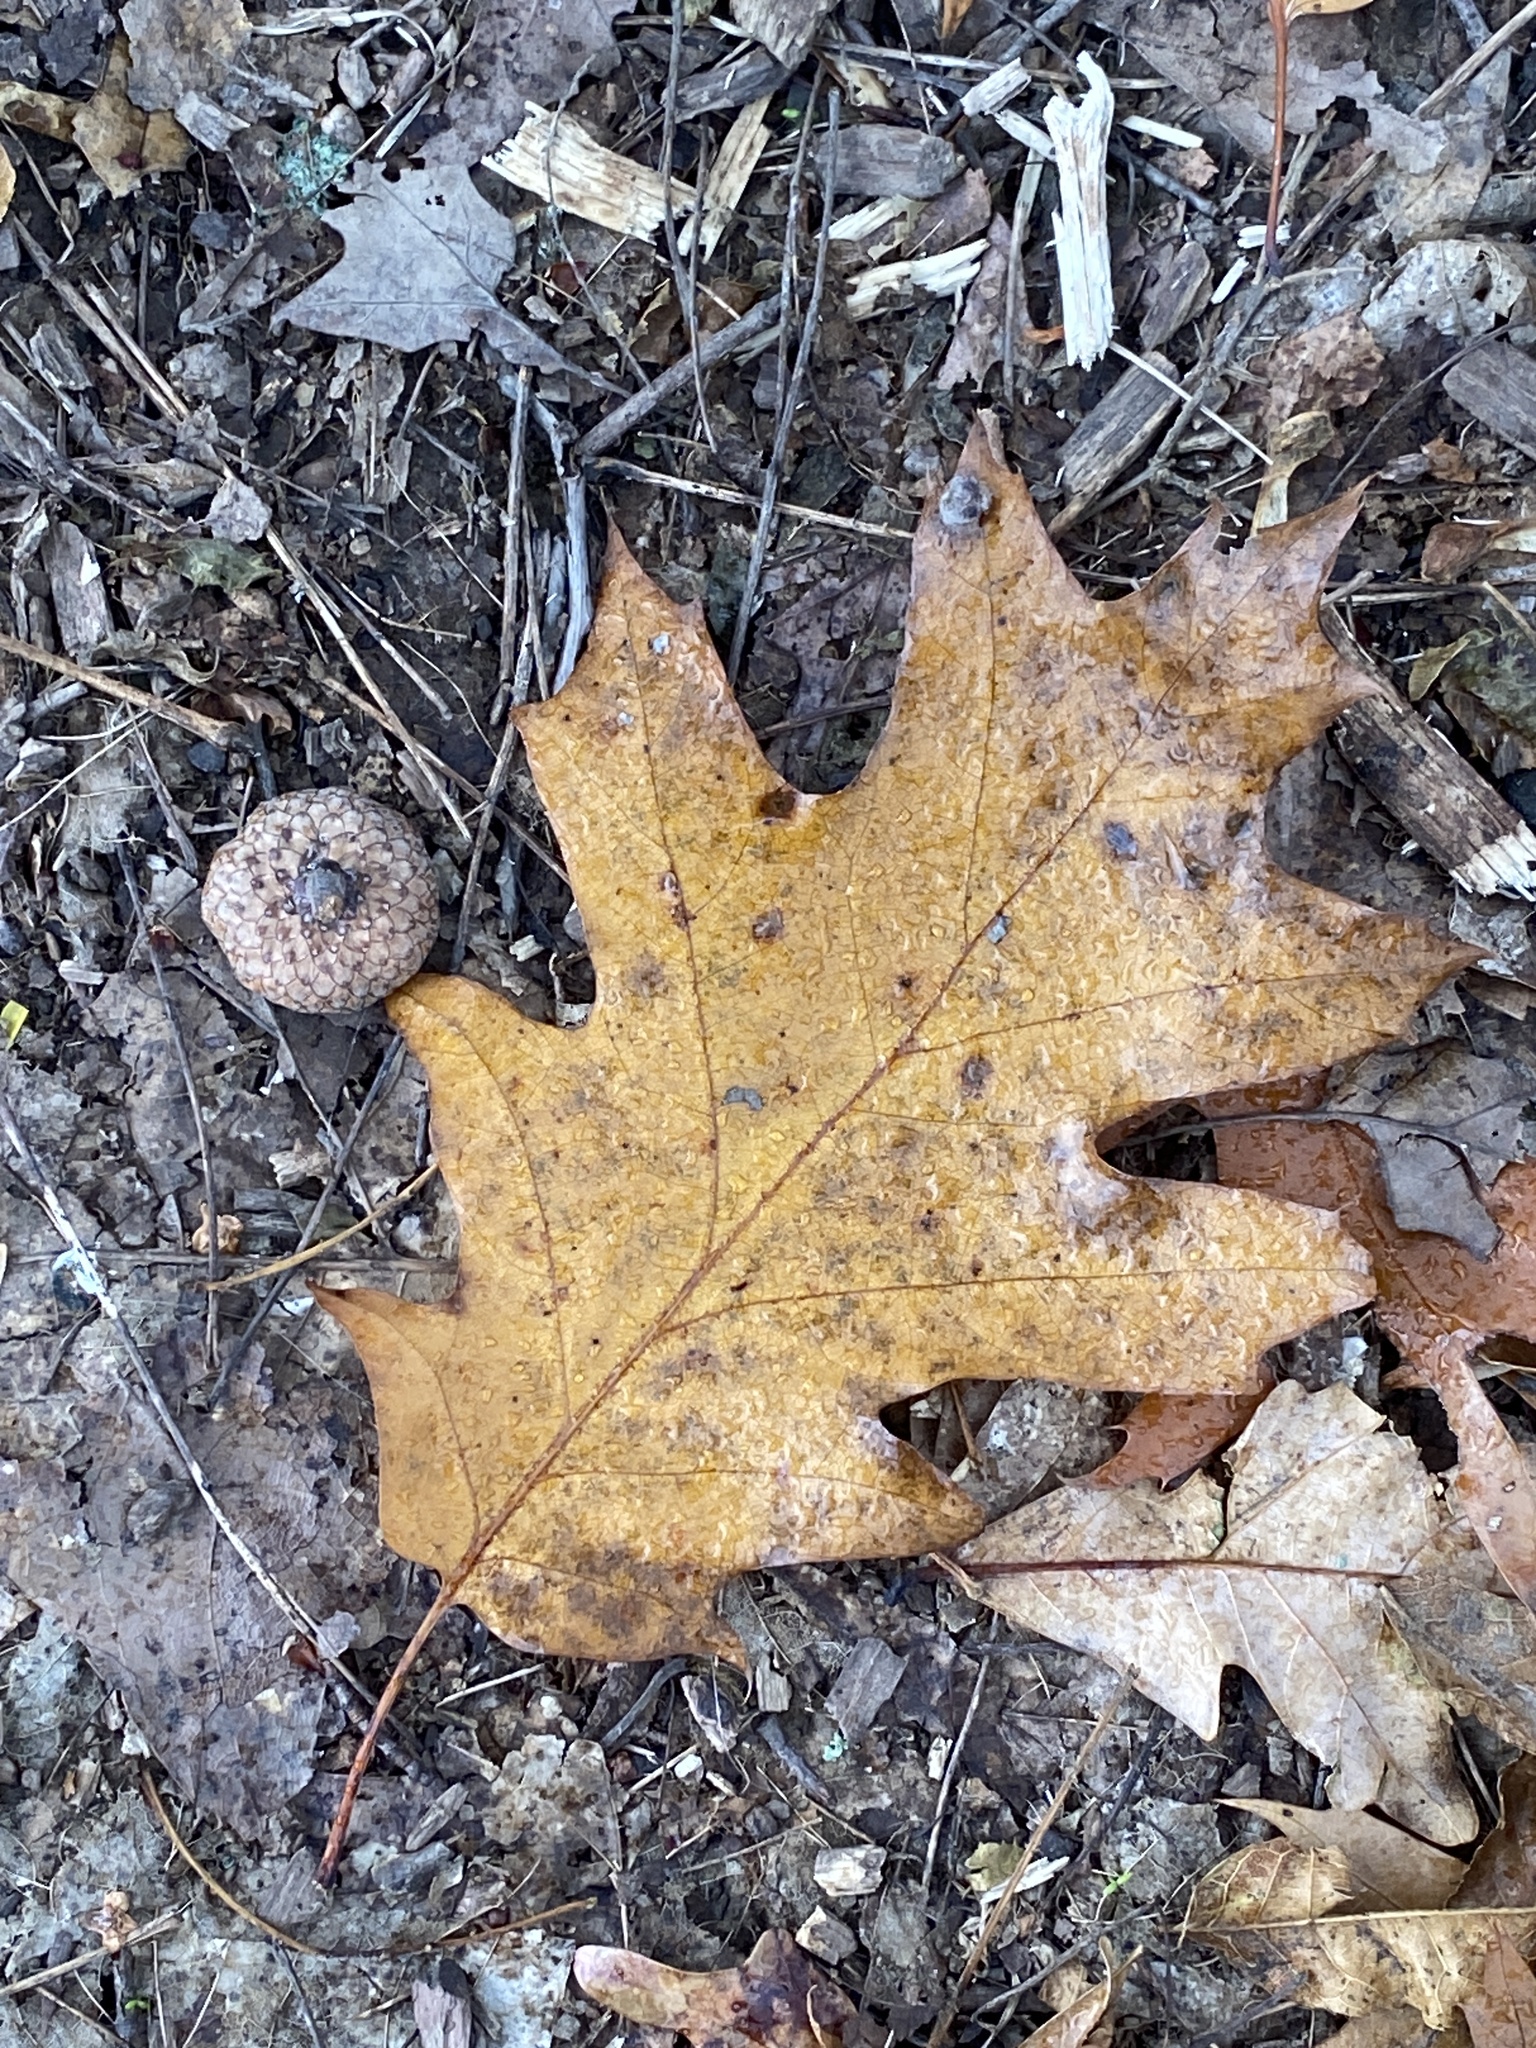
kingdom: Plantae
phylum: Tracheophyta
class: Magnoliopsida
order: Fagales
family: Fagaceae
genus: Quercus
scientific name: Quercus rubra
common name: Red oak
